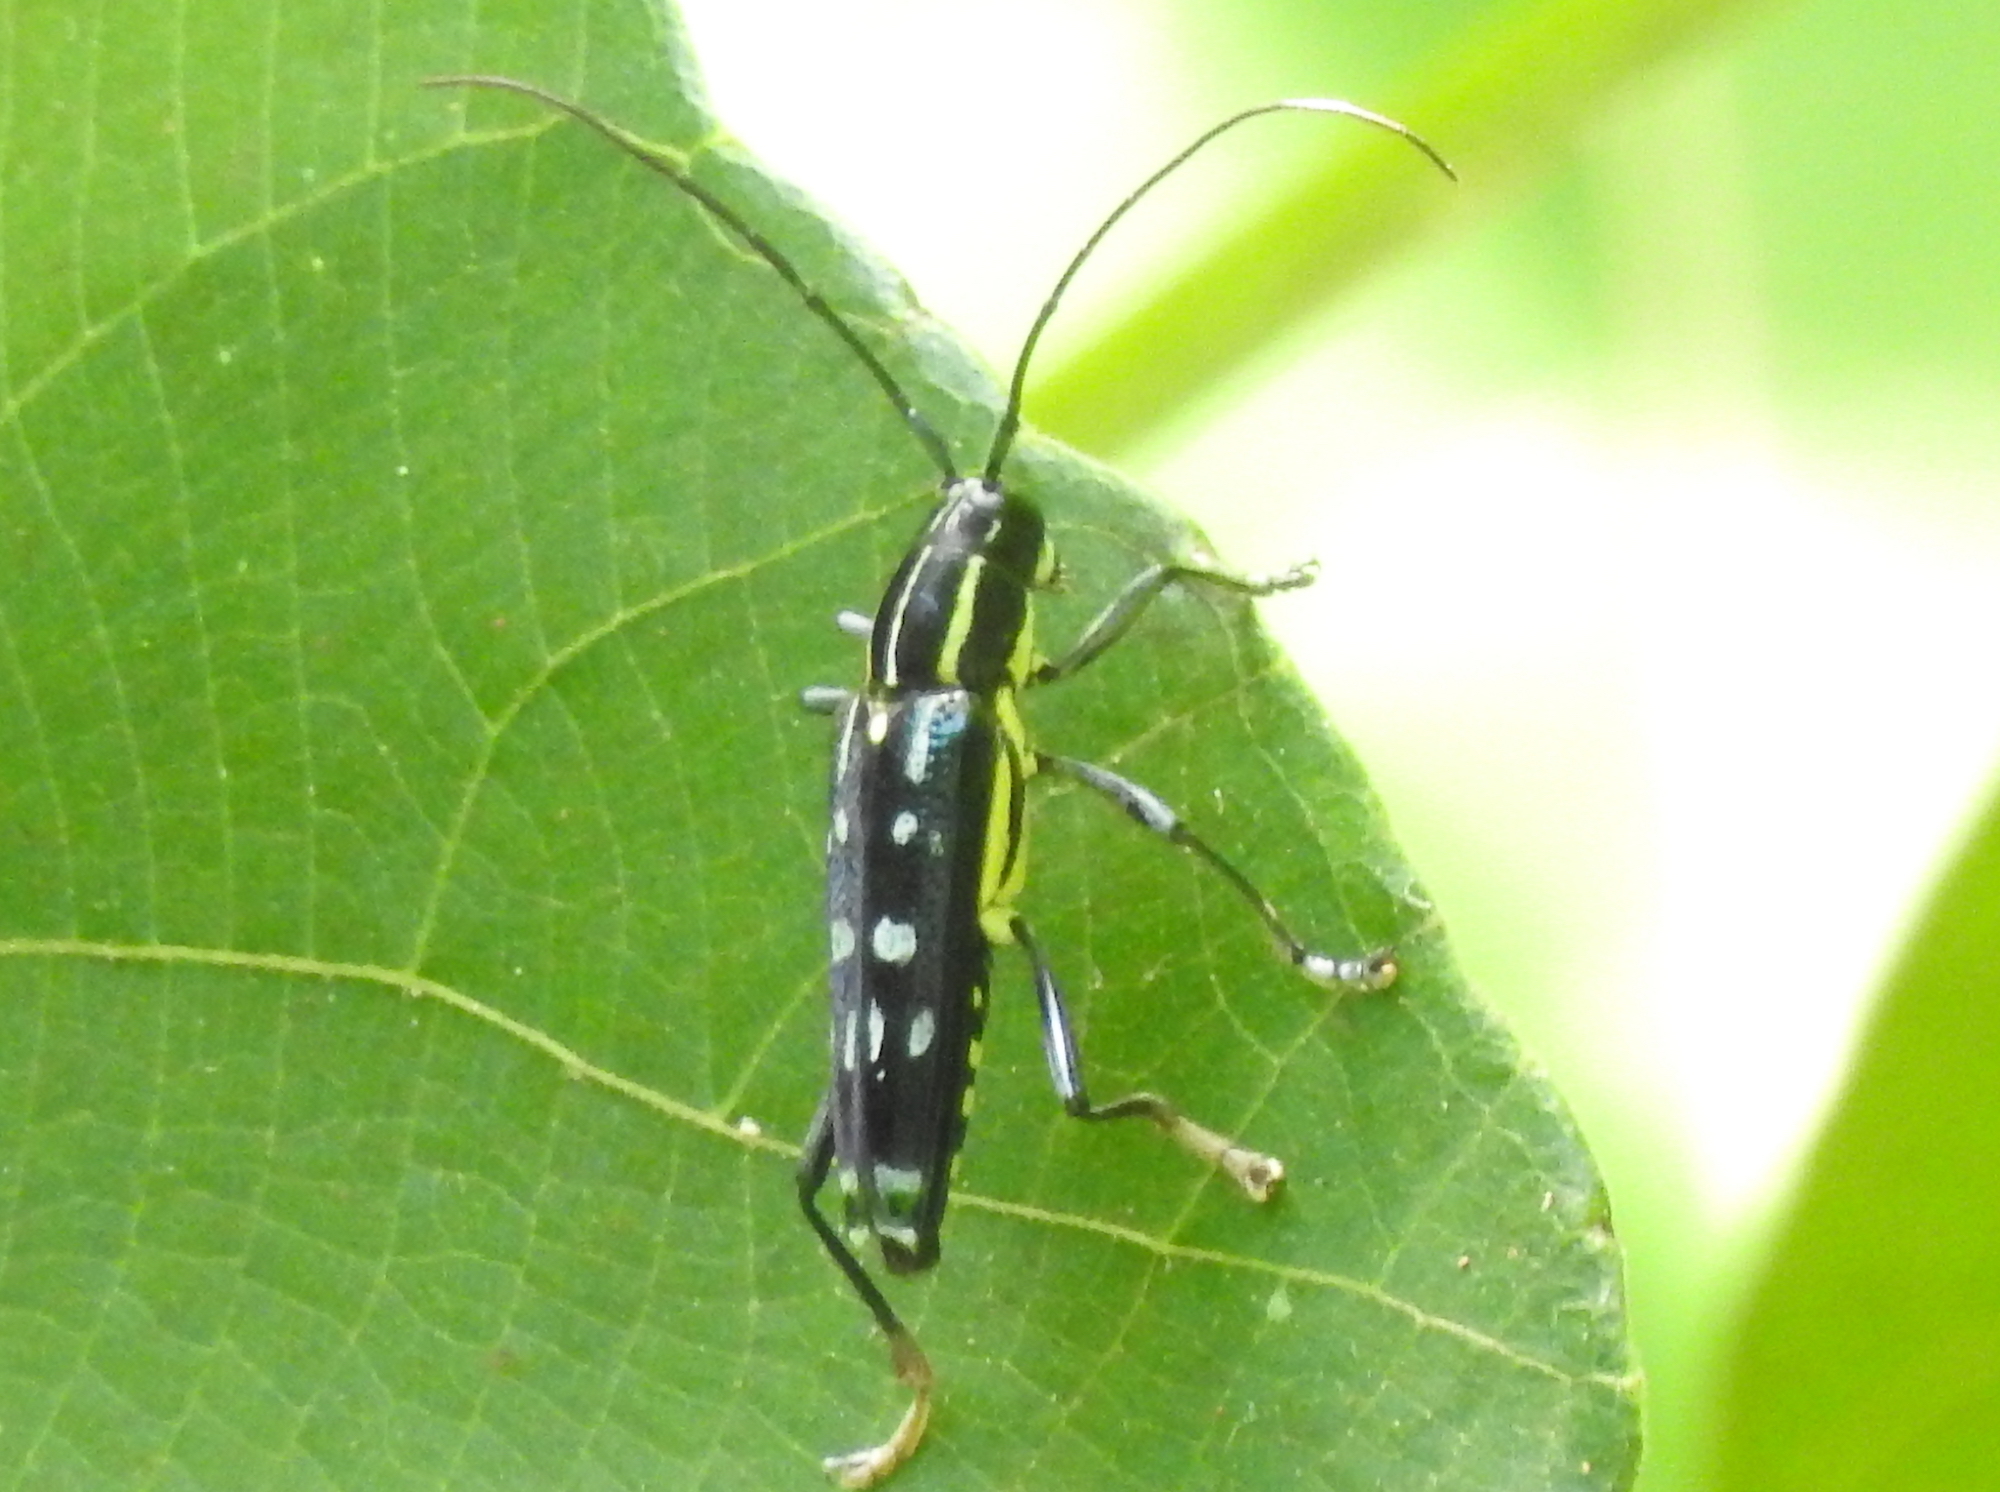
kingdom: Animalia
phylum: Arthropoda
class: Insecta
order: Coleoptera
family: Cerambycidae
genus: Glenea
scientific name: Glenea elegans
